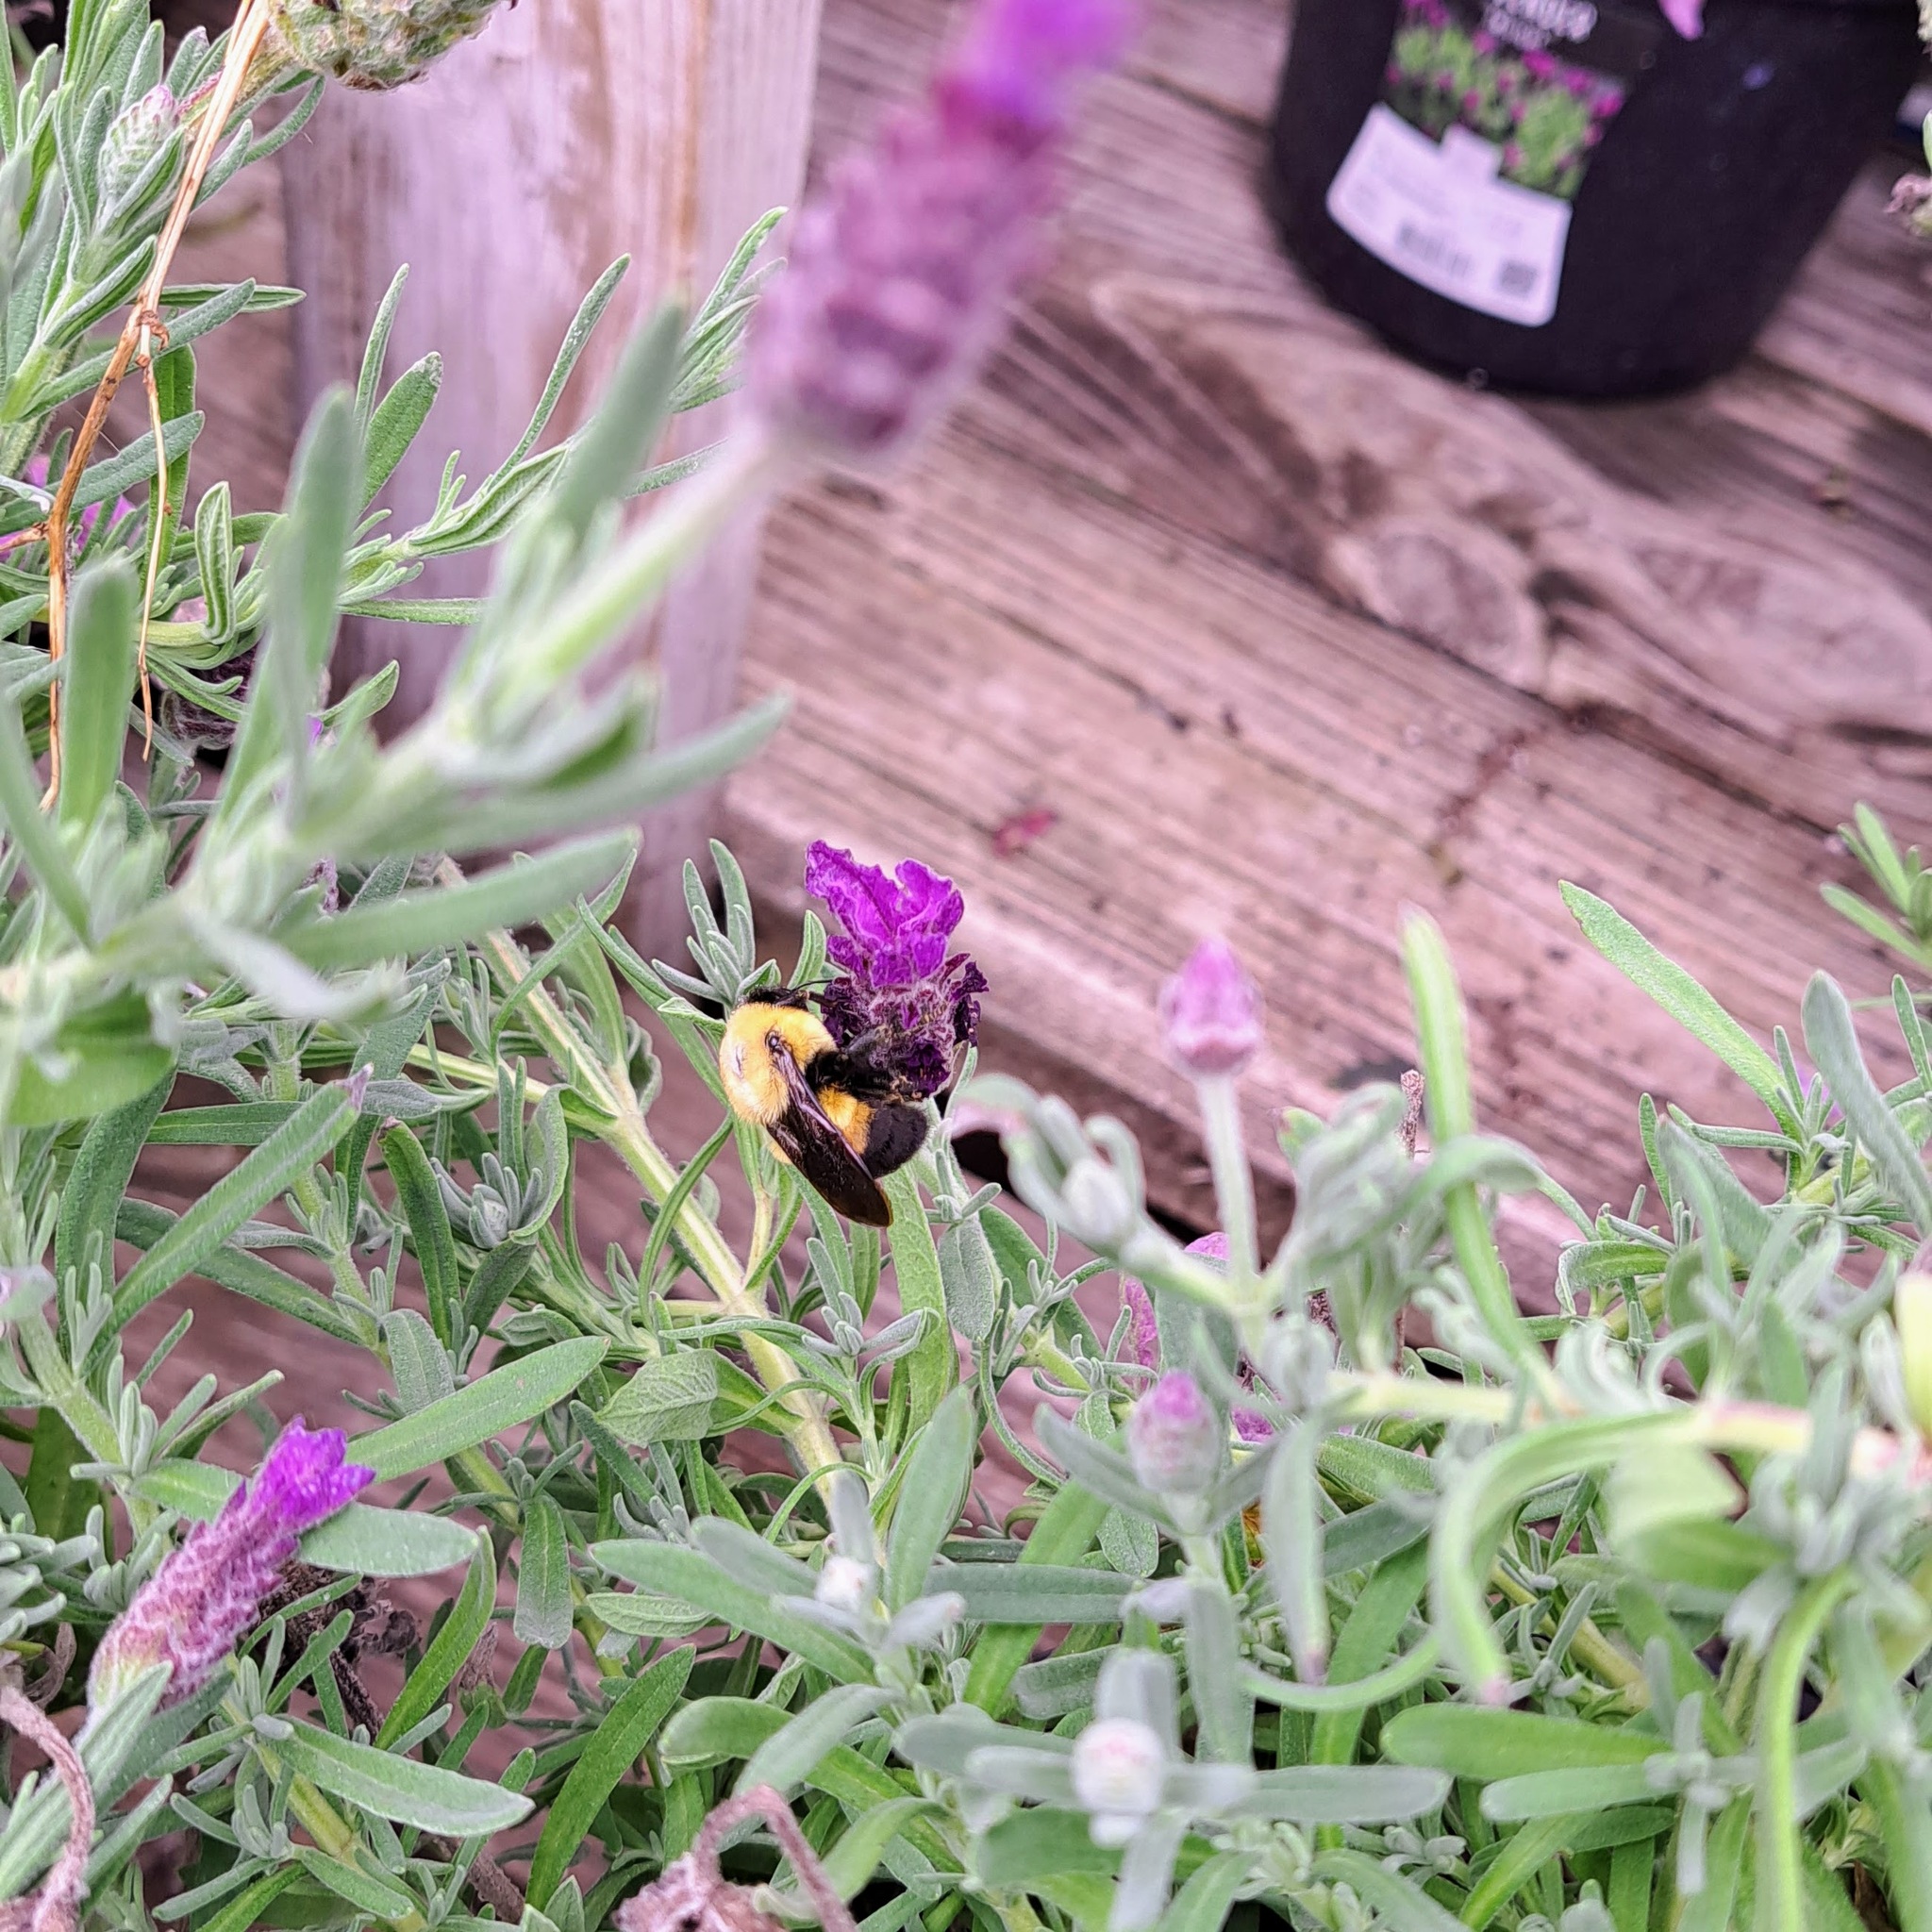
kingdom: Animalia
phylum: Arthropoda
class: Insecta
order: Hymenoptera
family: Apidae
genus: Bombus
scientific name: Bombus griseocollis
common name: Brown-belted bumble bee
